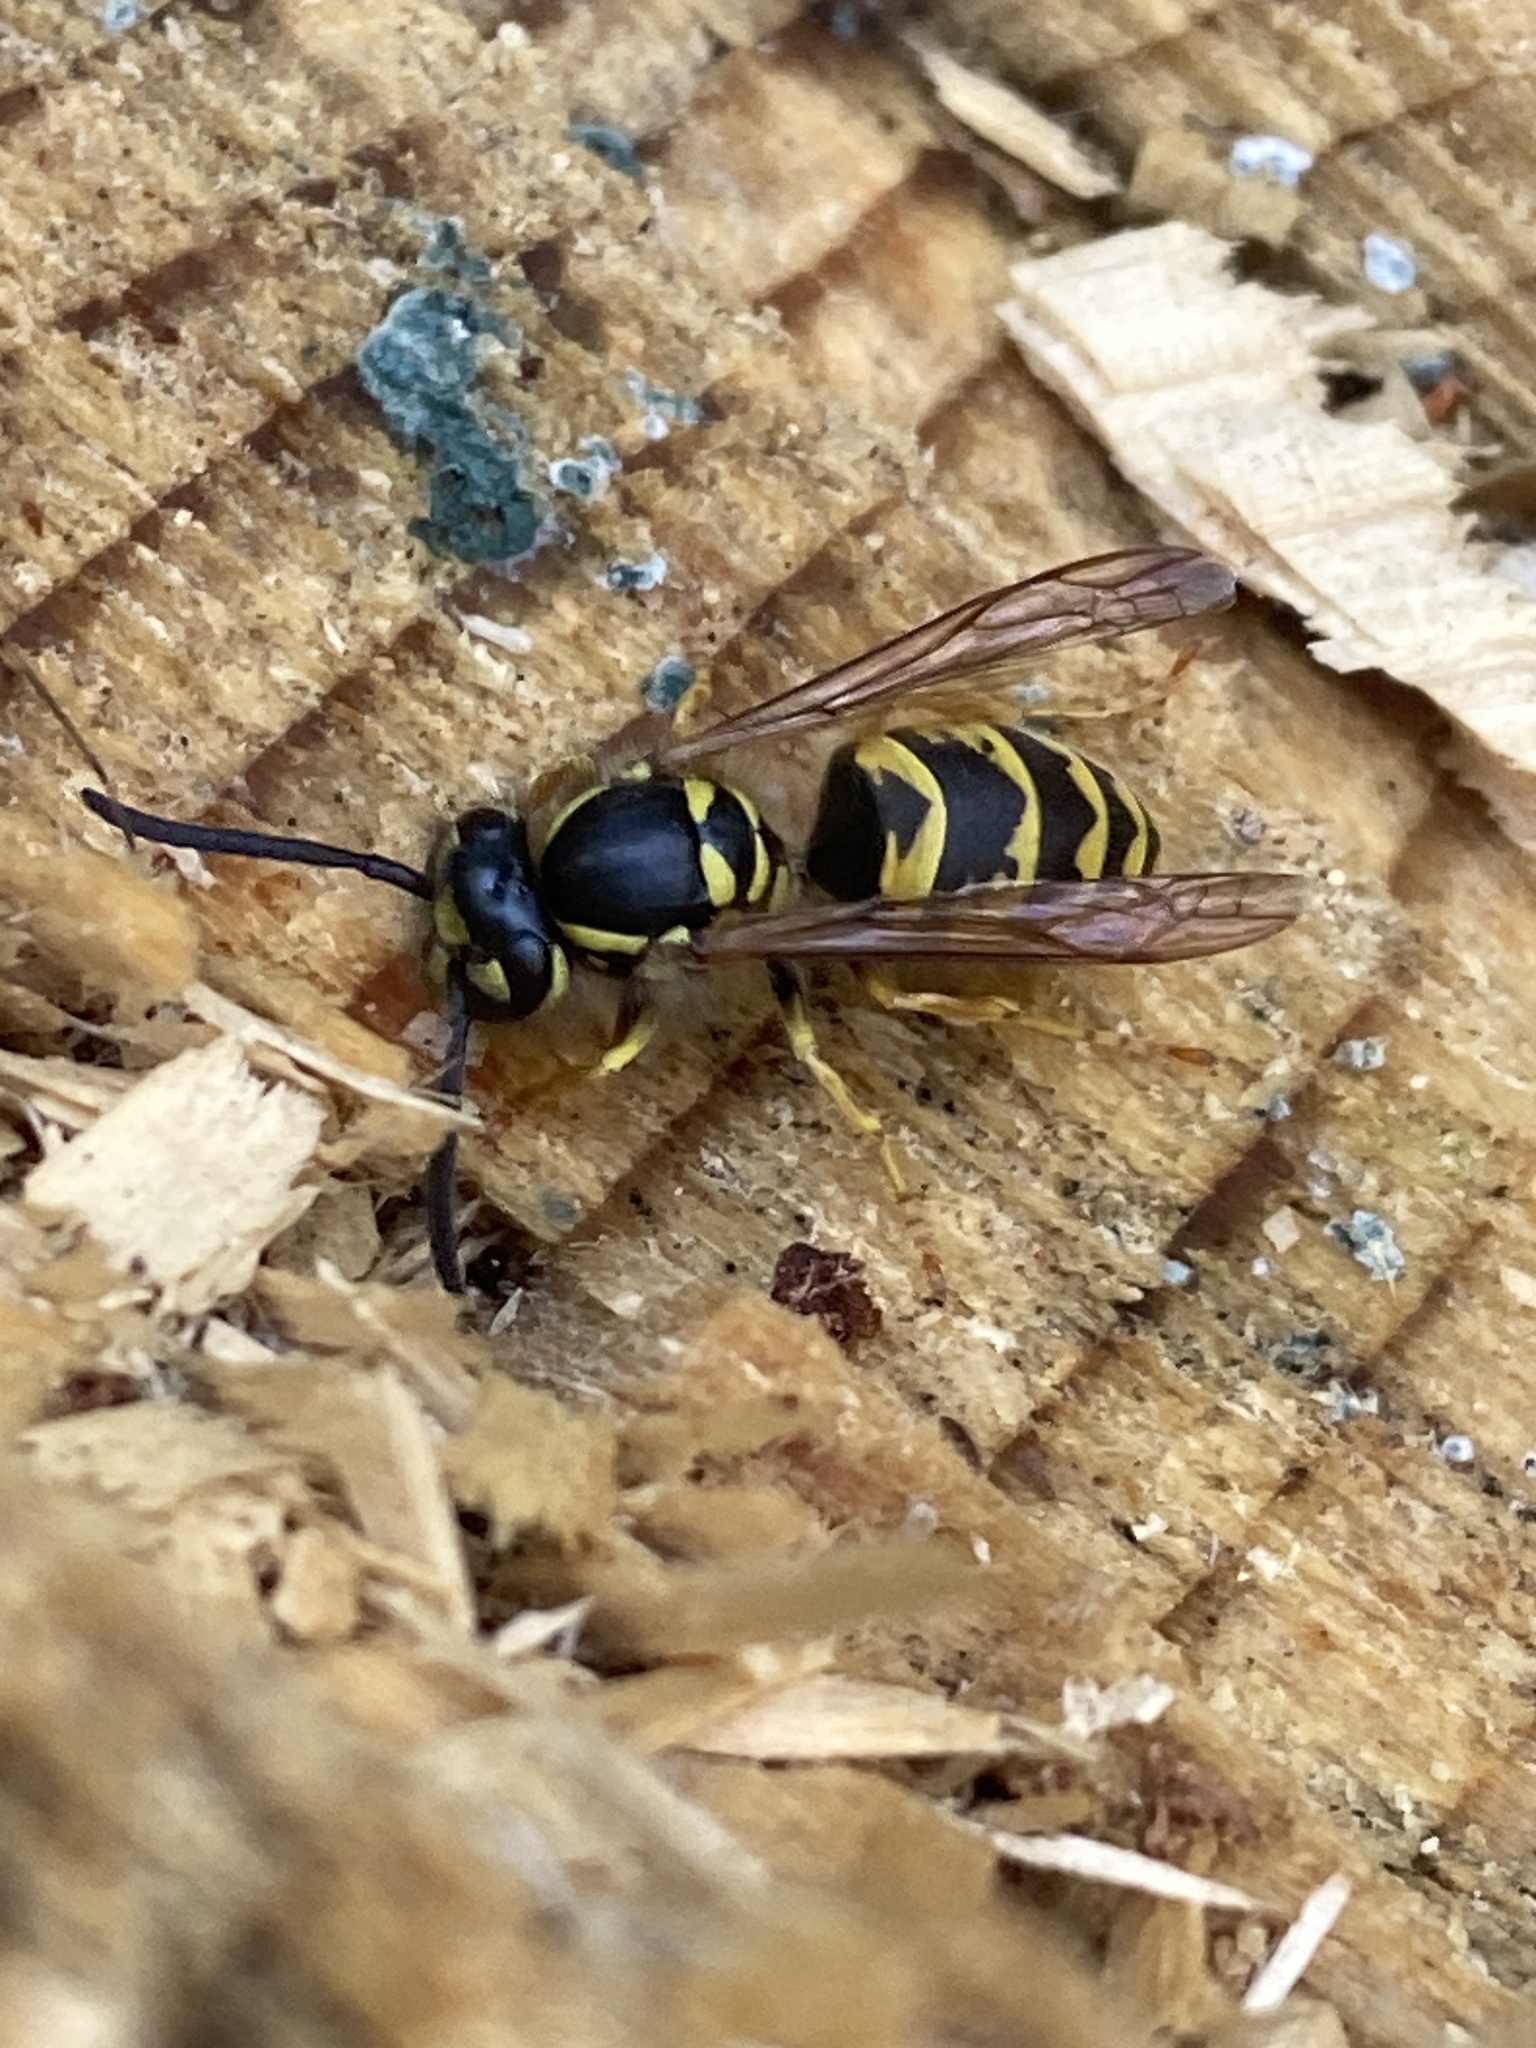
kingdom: Animalia
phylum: Arthropoda
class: Insecta
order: Hymenoptera
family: Vespidae
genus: Vespula
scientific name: Vespula vulgaris
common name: Common wasp
